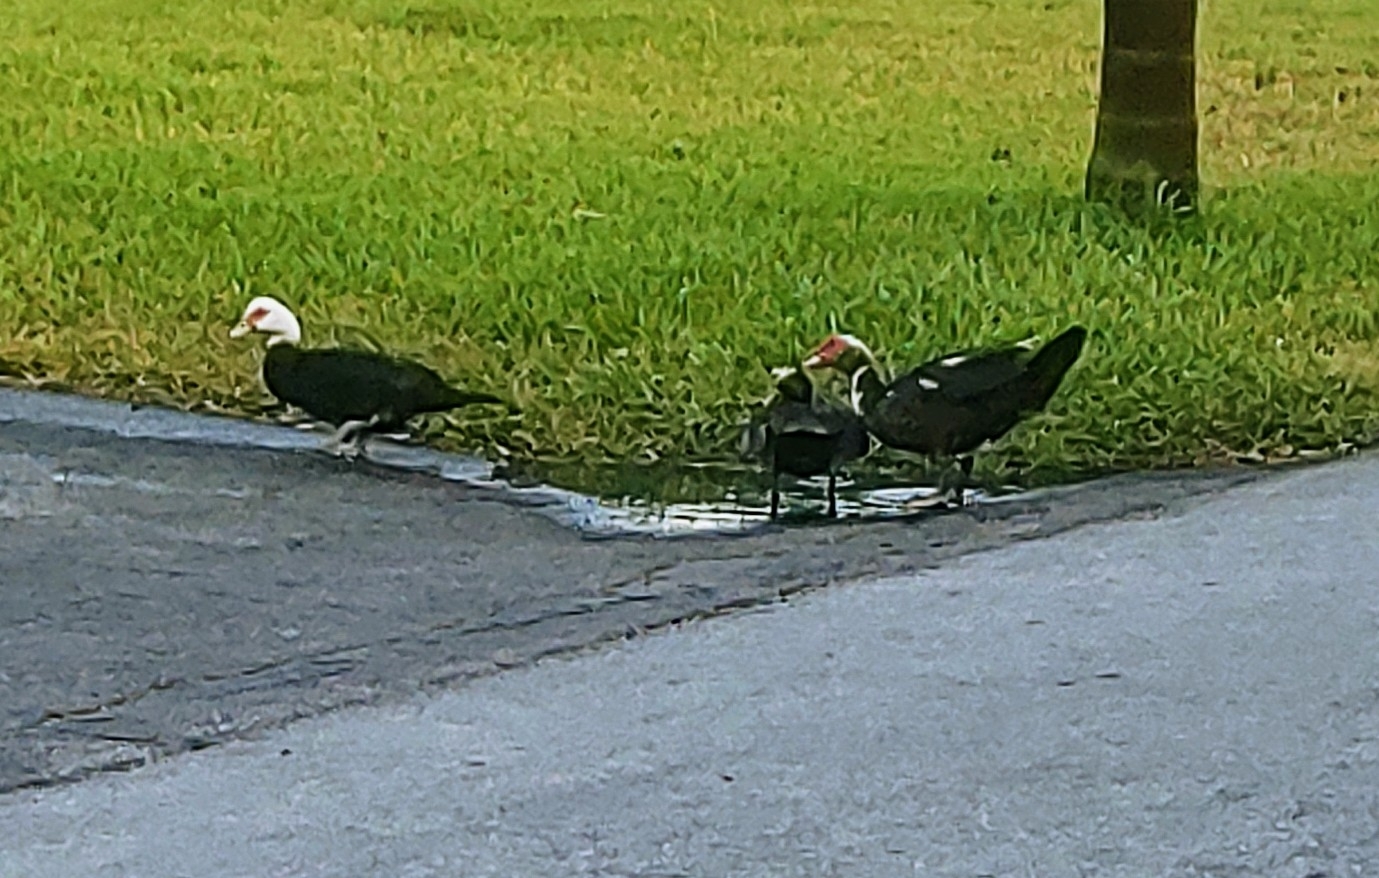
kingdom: Animalia
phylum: Chordata
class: Aves
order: Anseriformes
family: Anatidae
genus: Cairina
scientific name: Cairina moschata
